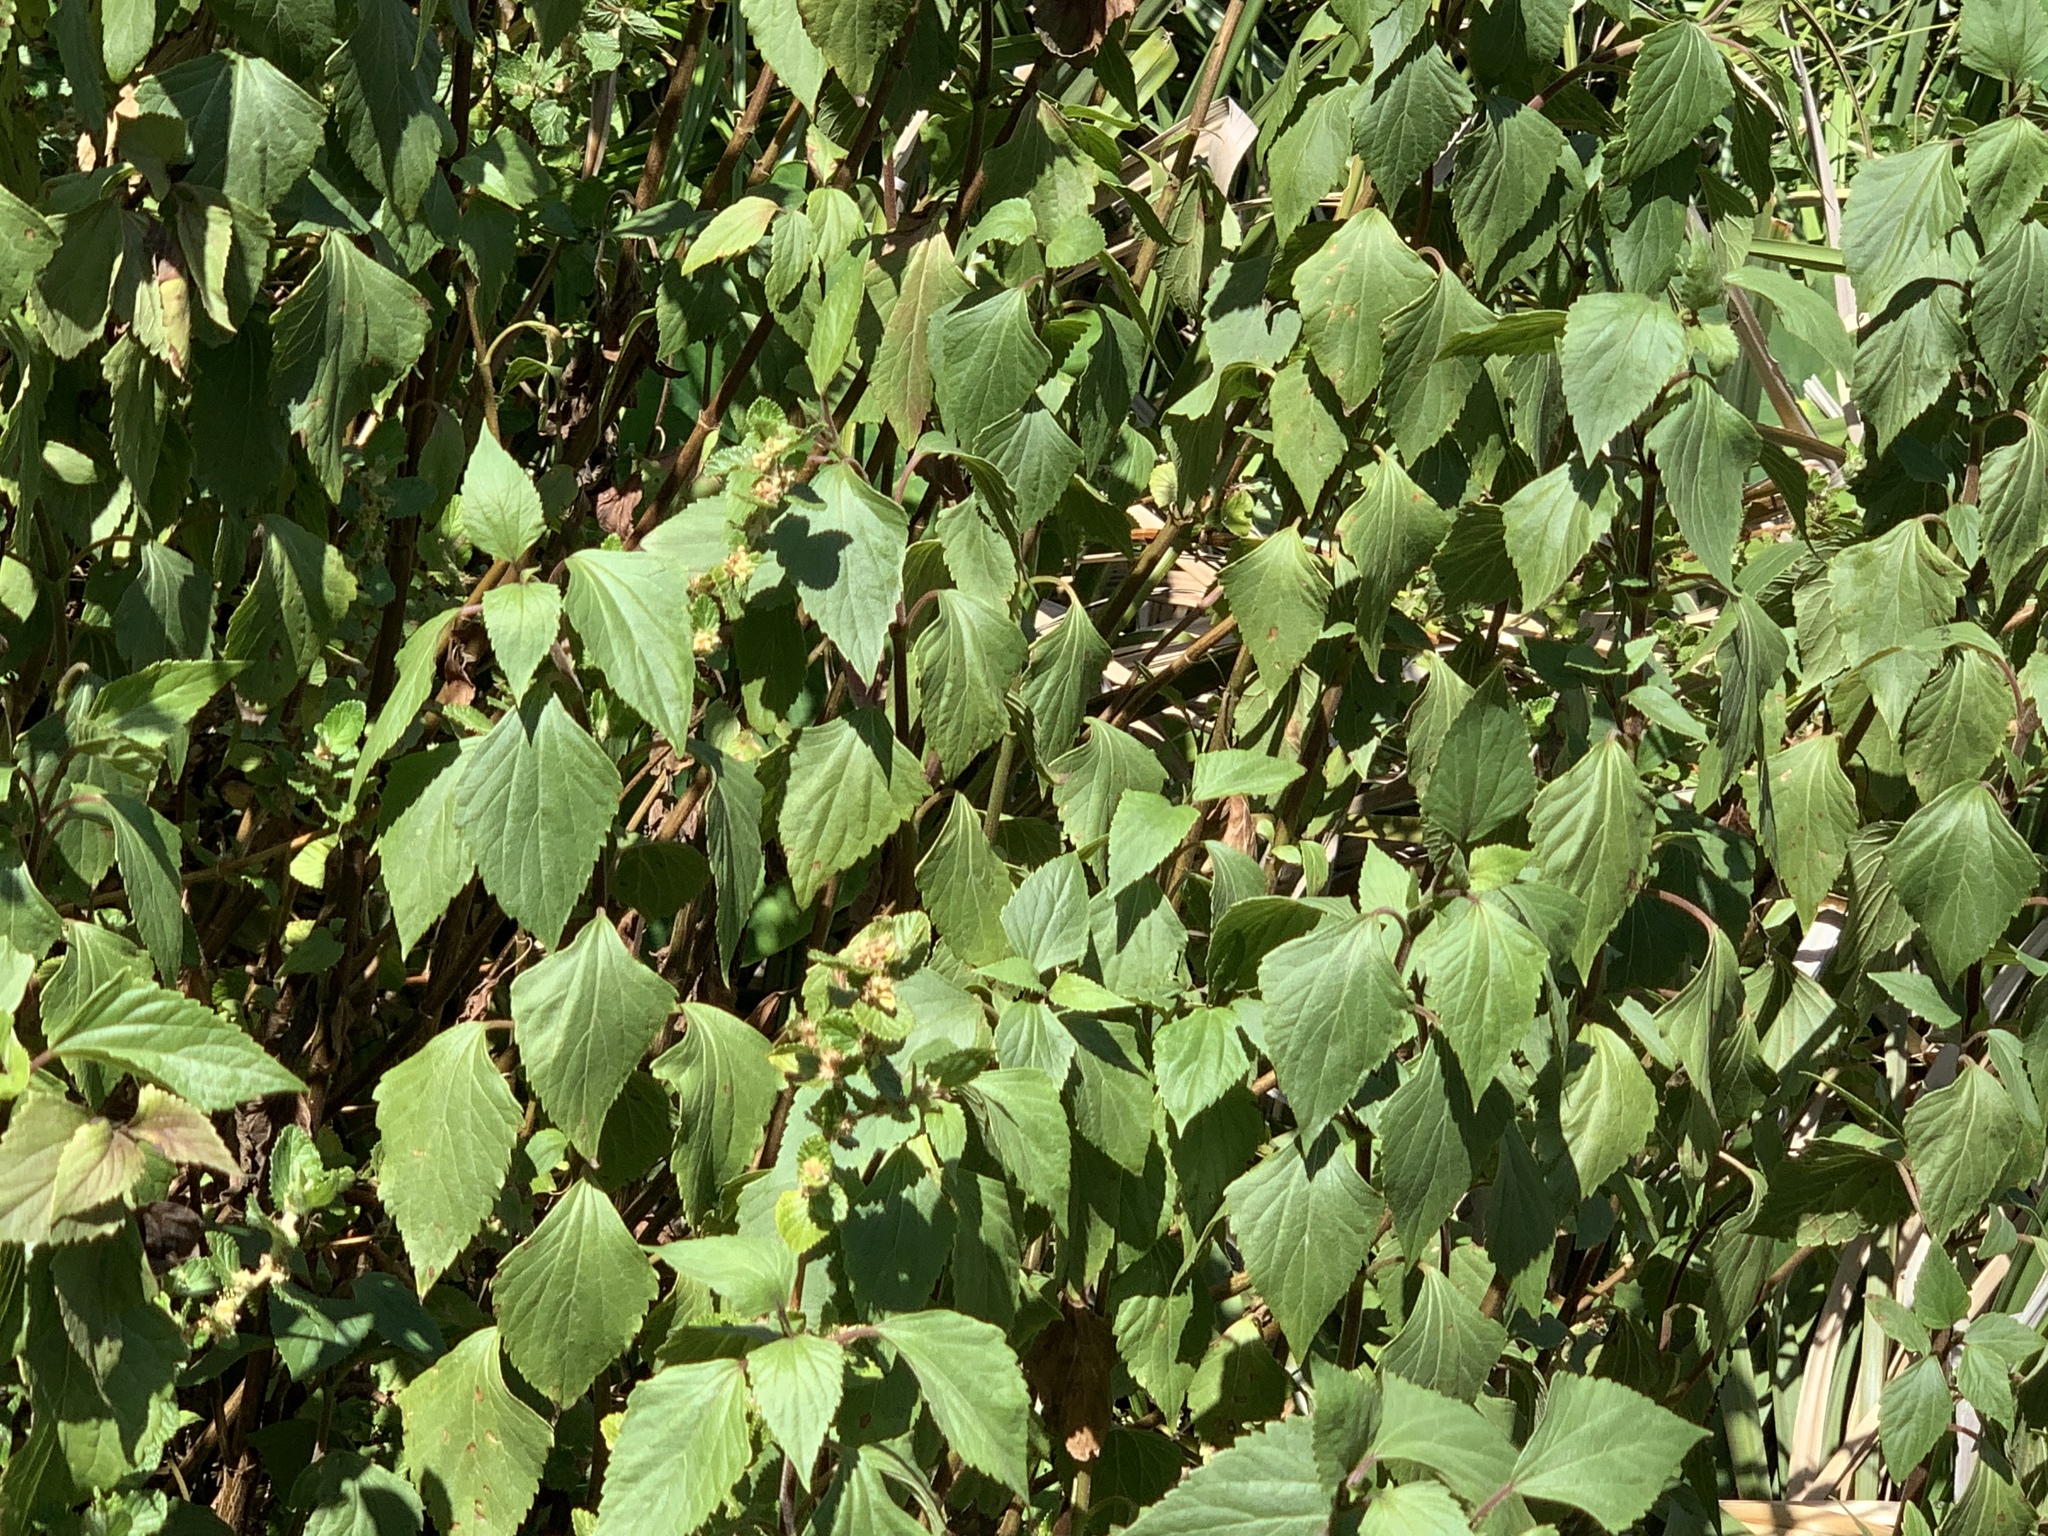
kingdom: Plantae
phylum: Tracheophyta
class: Magnoliopsida
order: Asterales
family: Asteraceae
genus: Ageratina
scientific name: Ageratina adenophora
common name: Sticky snakeroot
